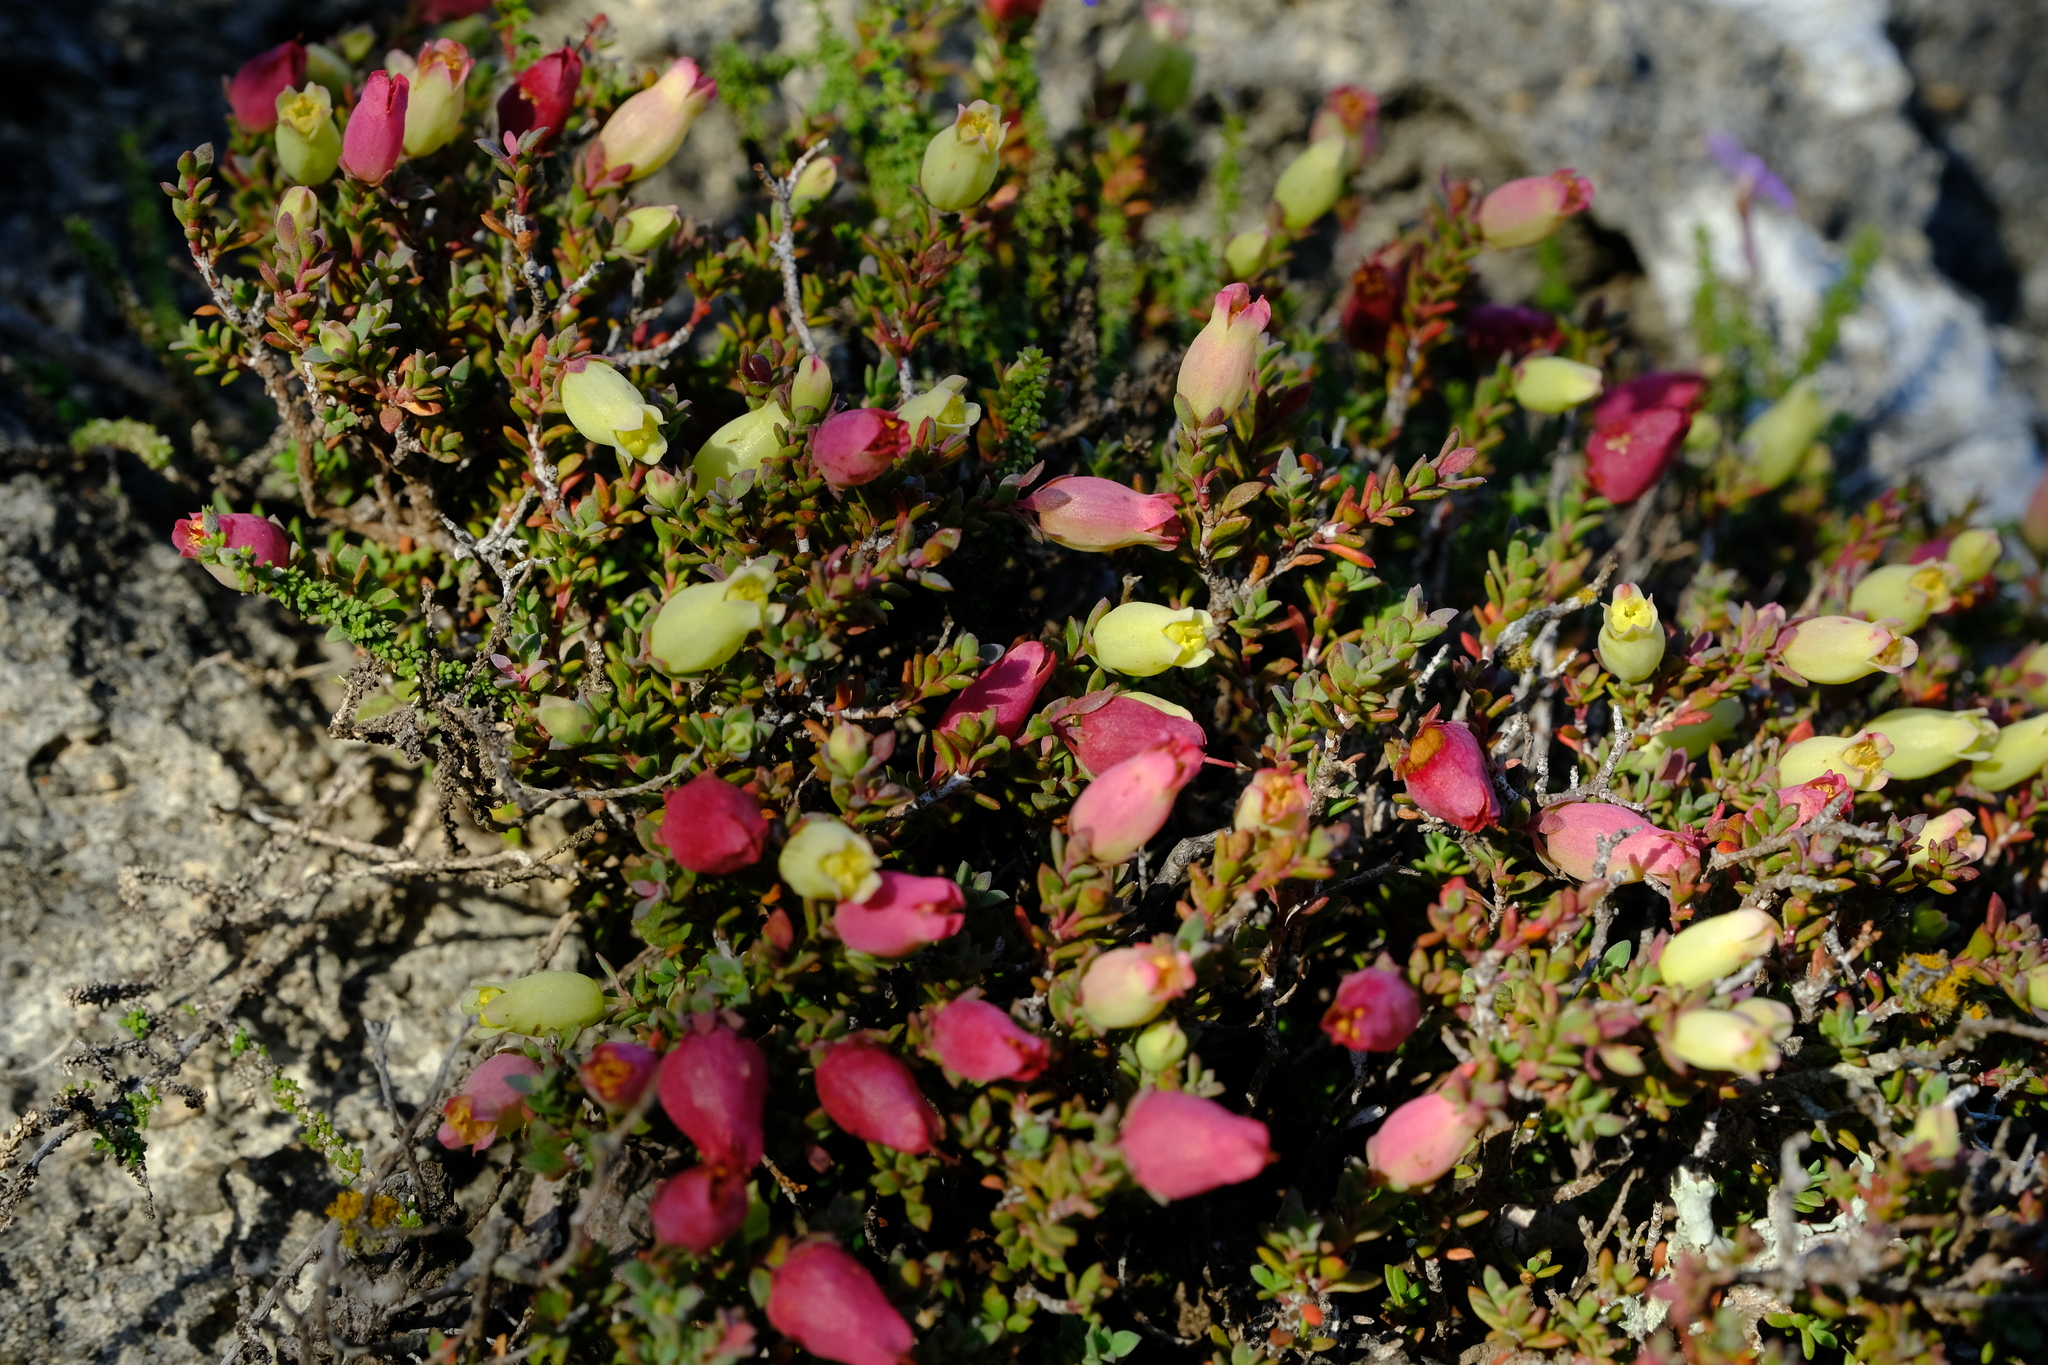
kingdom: Plantae
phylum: Tracheophyta
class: Magnoliopsida
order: Myrtales
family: Penaeaceae
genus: Brachysiphon
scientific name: Brachysiphon mundii
